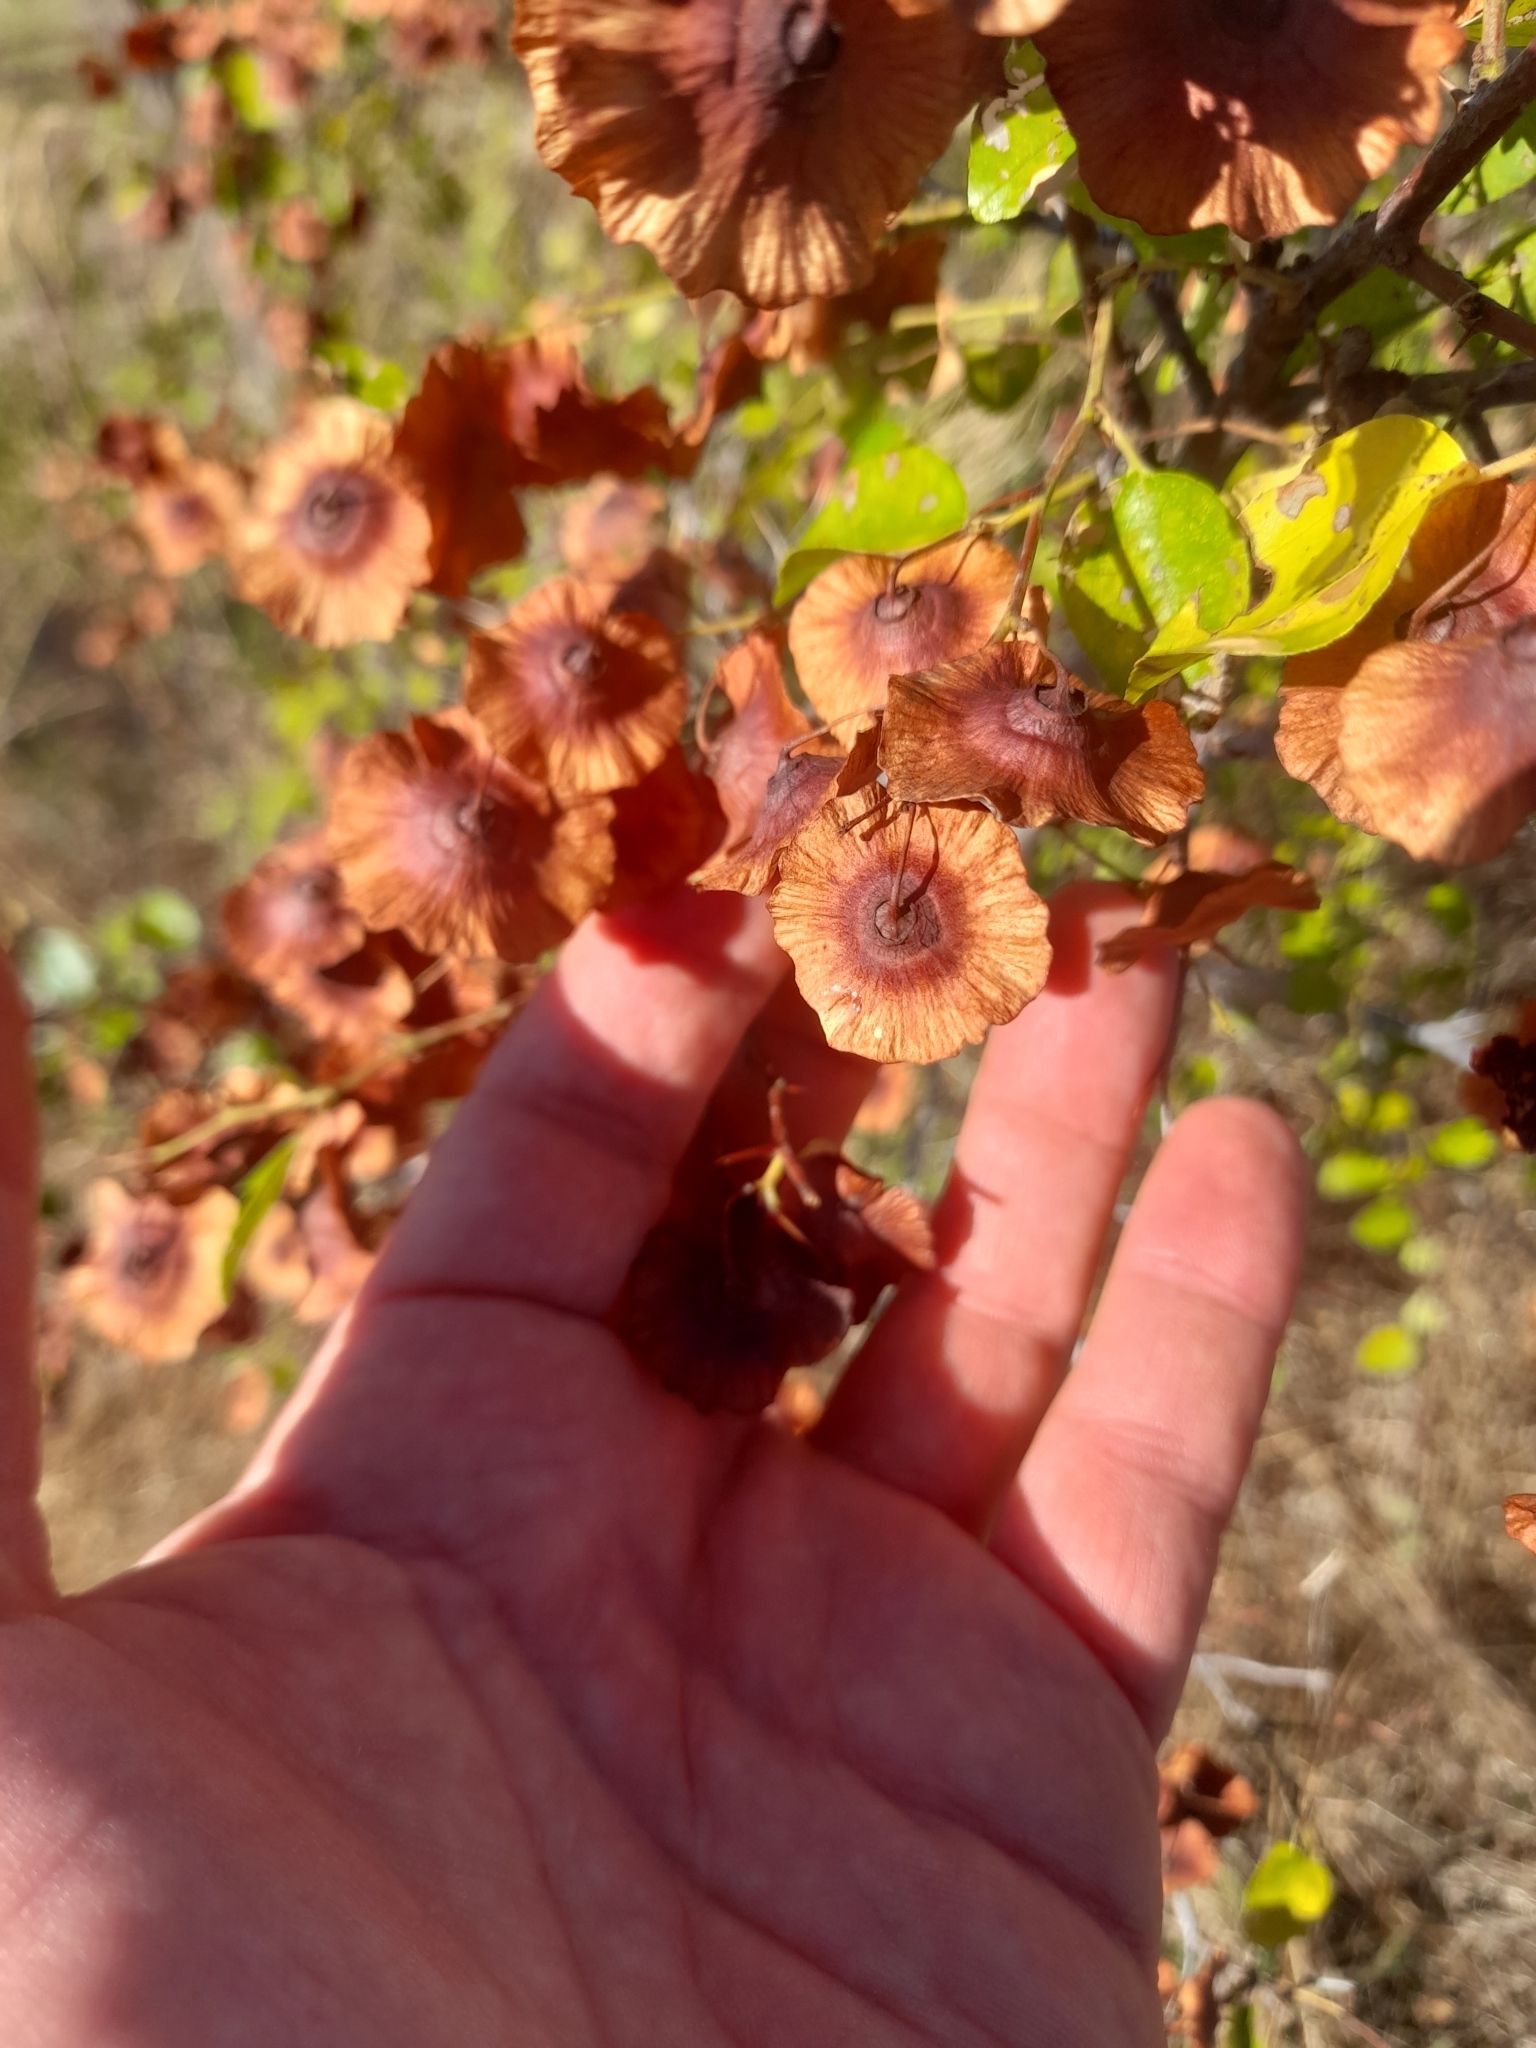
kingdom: Plantae
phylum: Tracheophyta
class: Magnoliopsida
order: Rosales
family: Rhamnaceae
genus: Paliurus
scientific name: Paliurus spina-christi
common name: Jeruselem thorn
